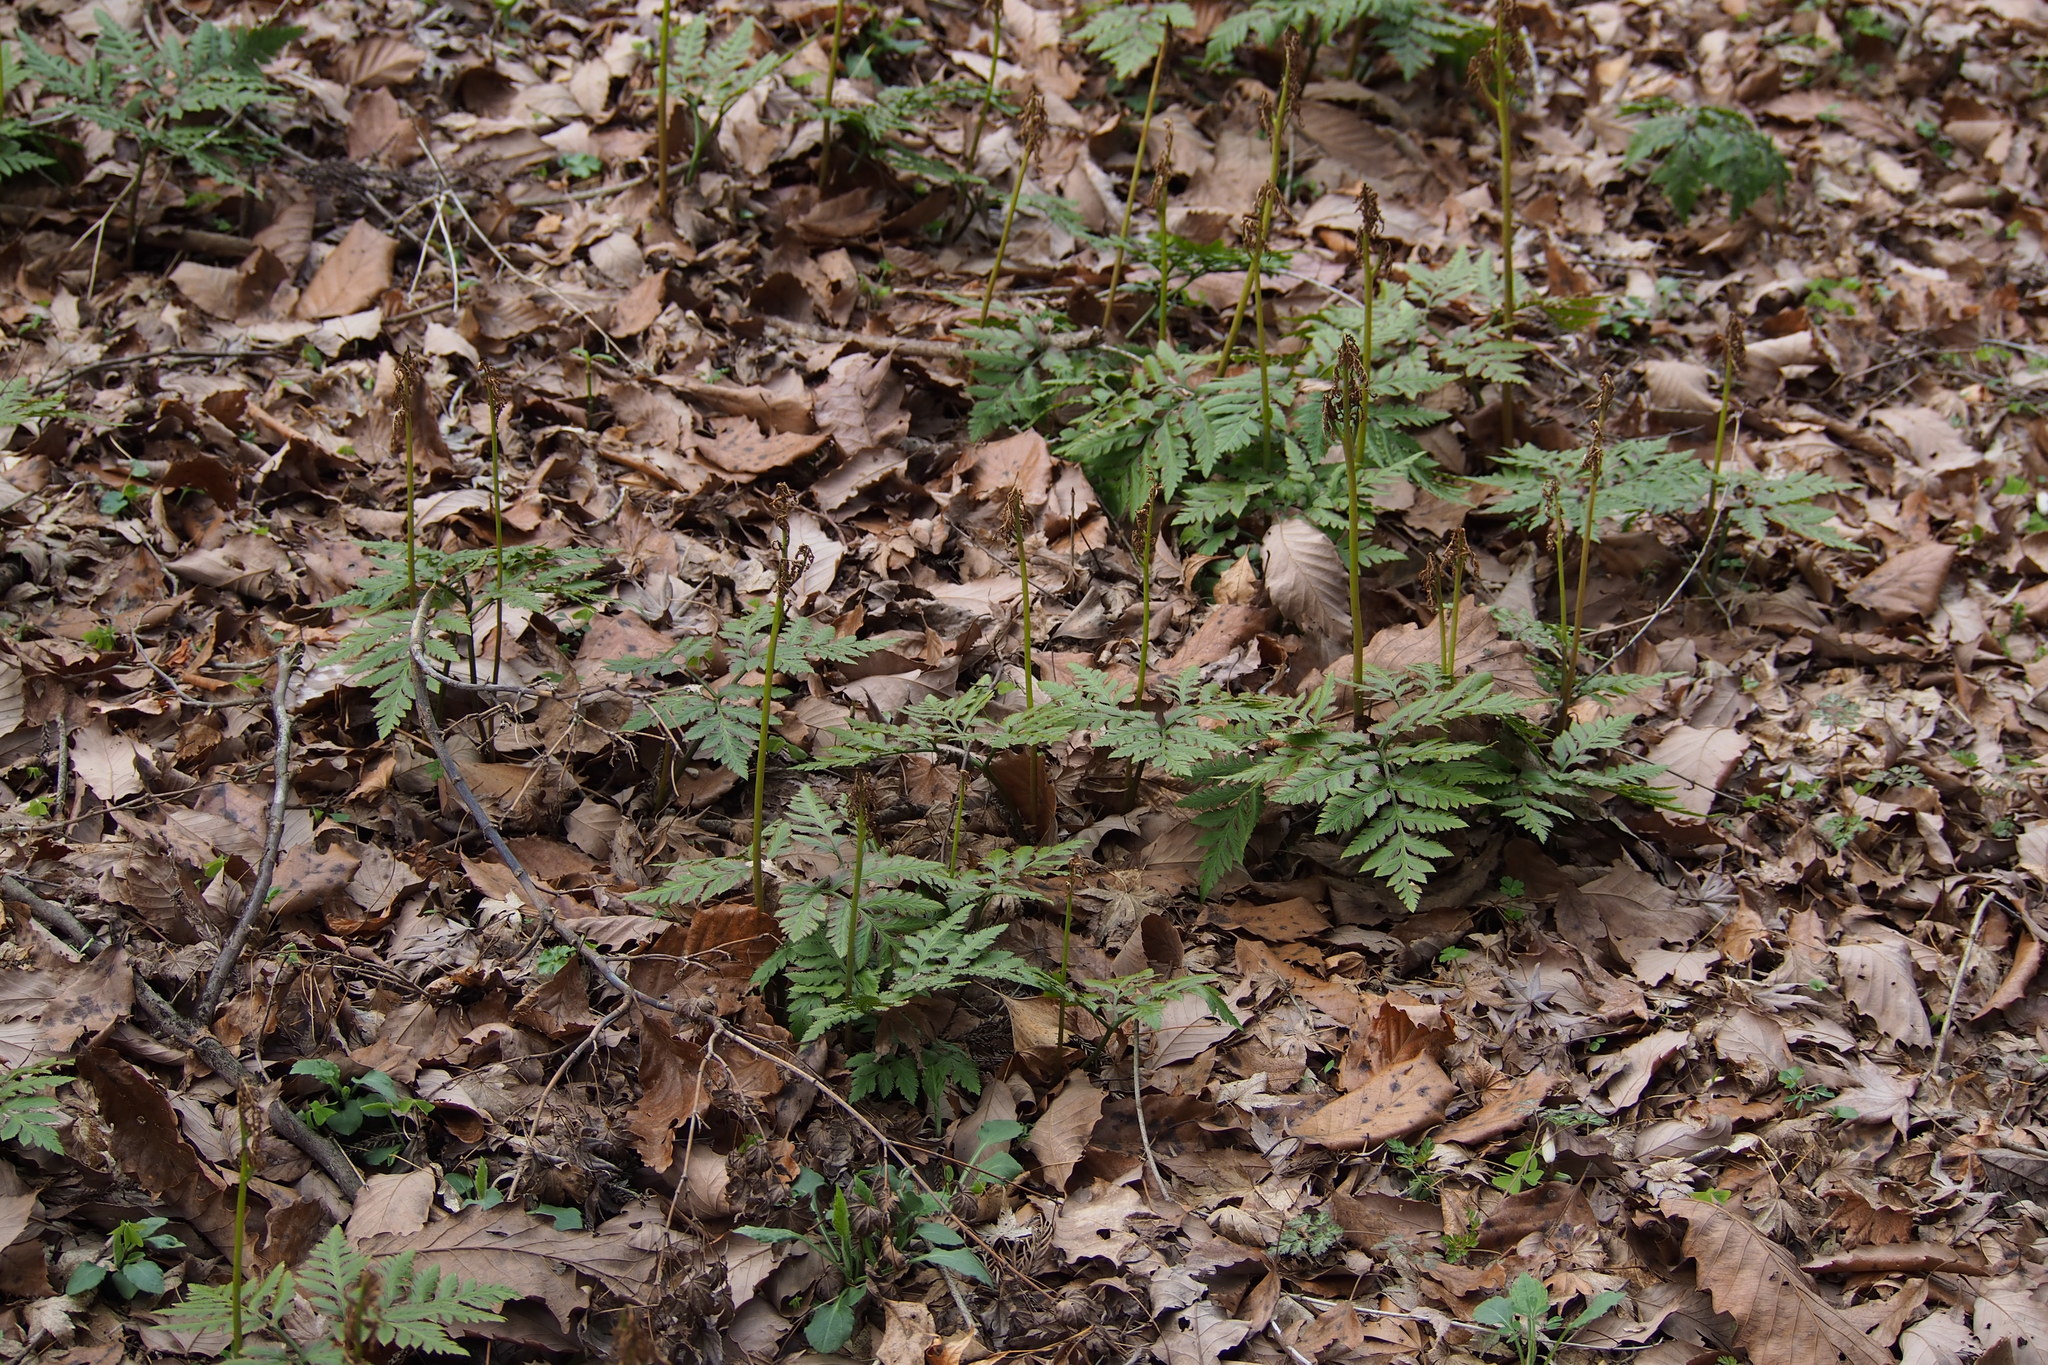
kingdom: Plantae
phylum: Tracheophyta
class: Polypodiopsida
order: Ophioglossales
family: Ophioglossaceae
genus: Sceptridium
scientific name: Sceptridium japonicum
